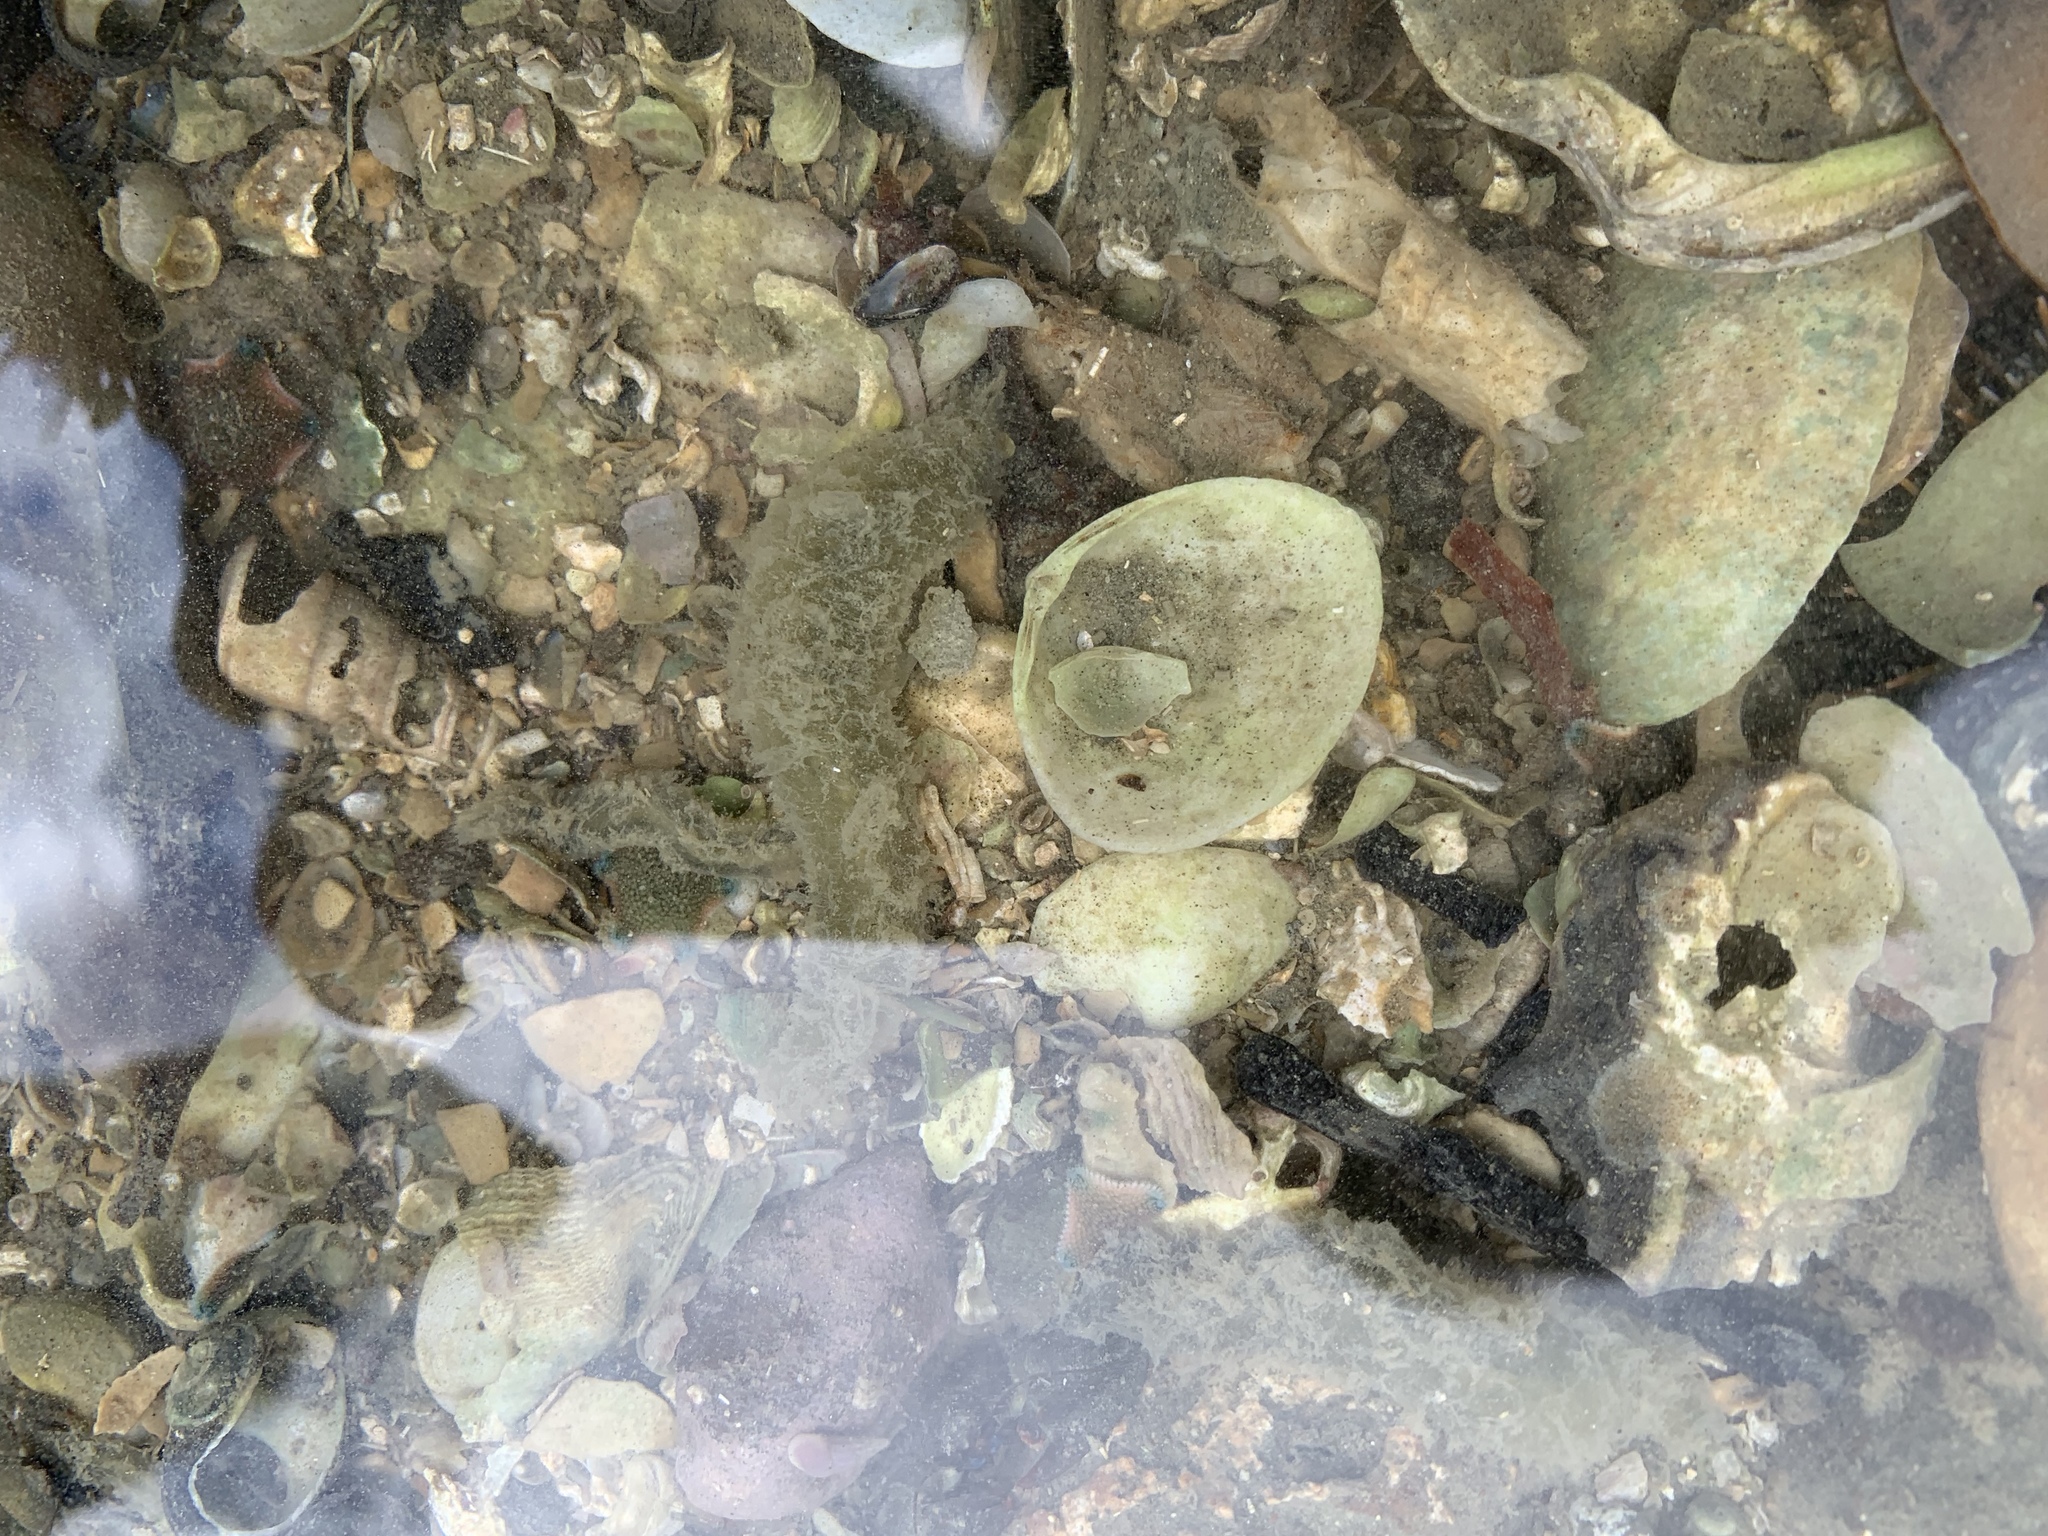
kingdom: Animalia
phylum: Annelida
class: Polychaeta
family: Flabelligeridae
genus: Flabelligera
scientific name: Flabelligera bicolor
